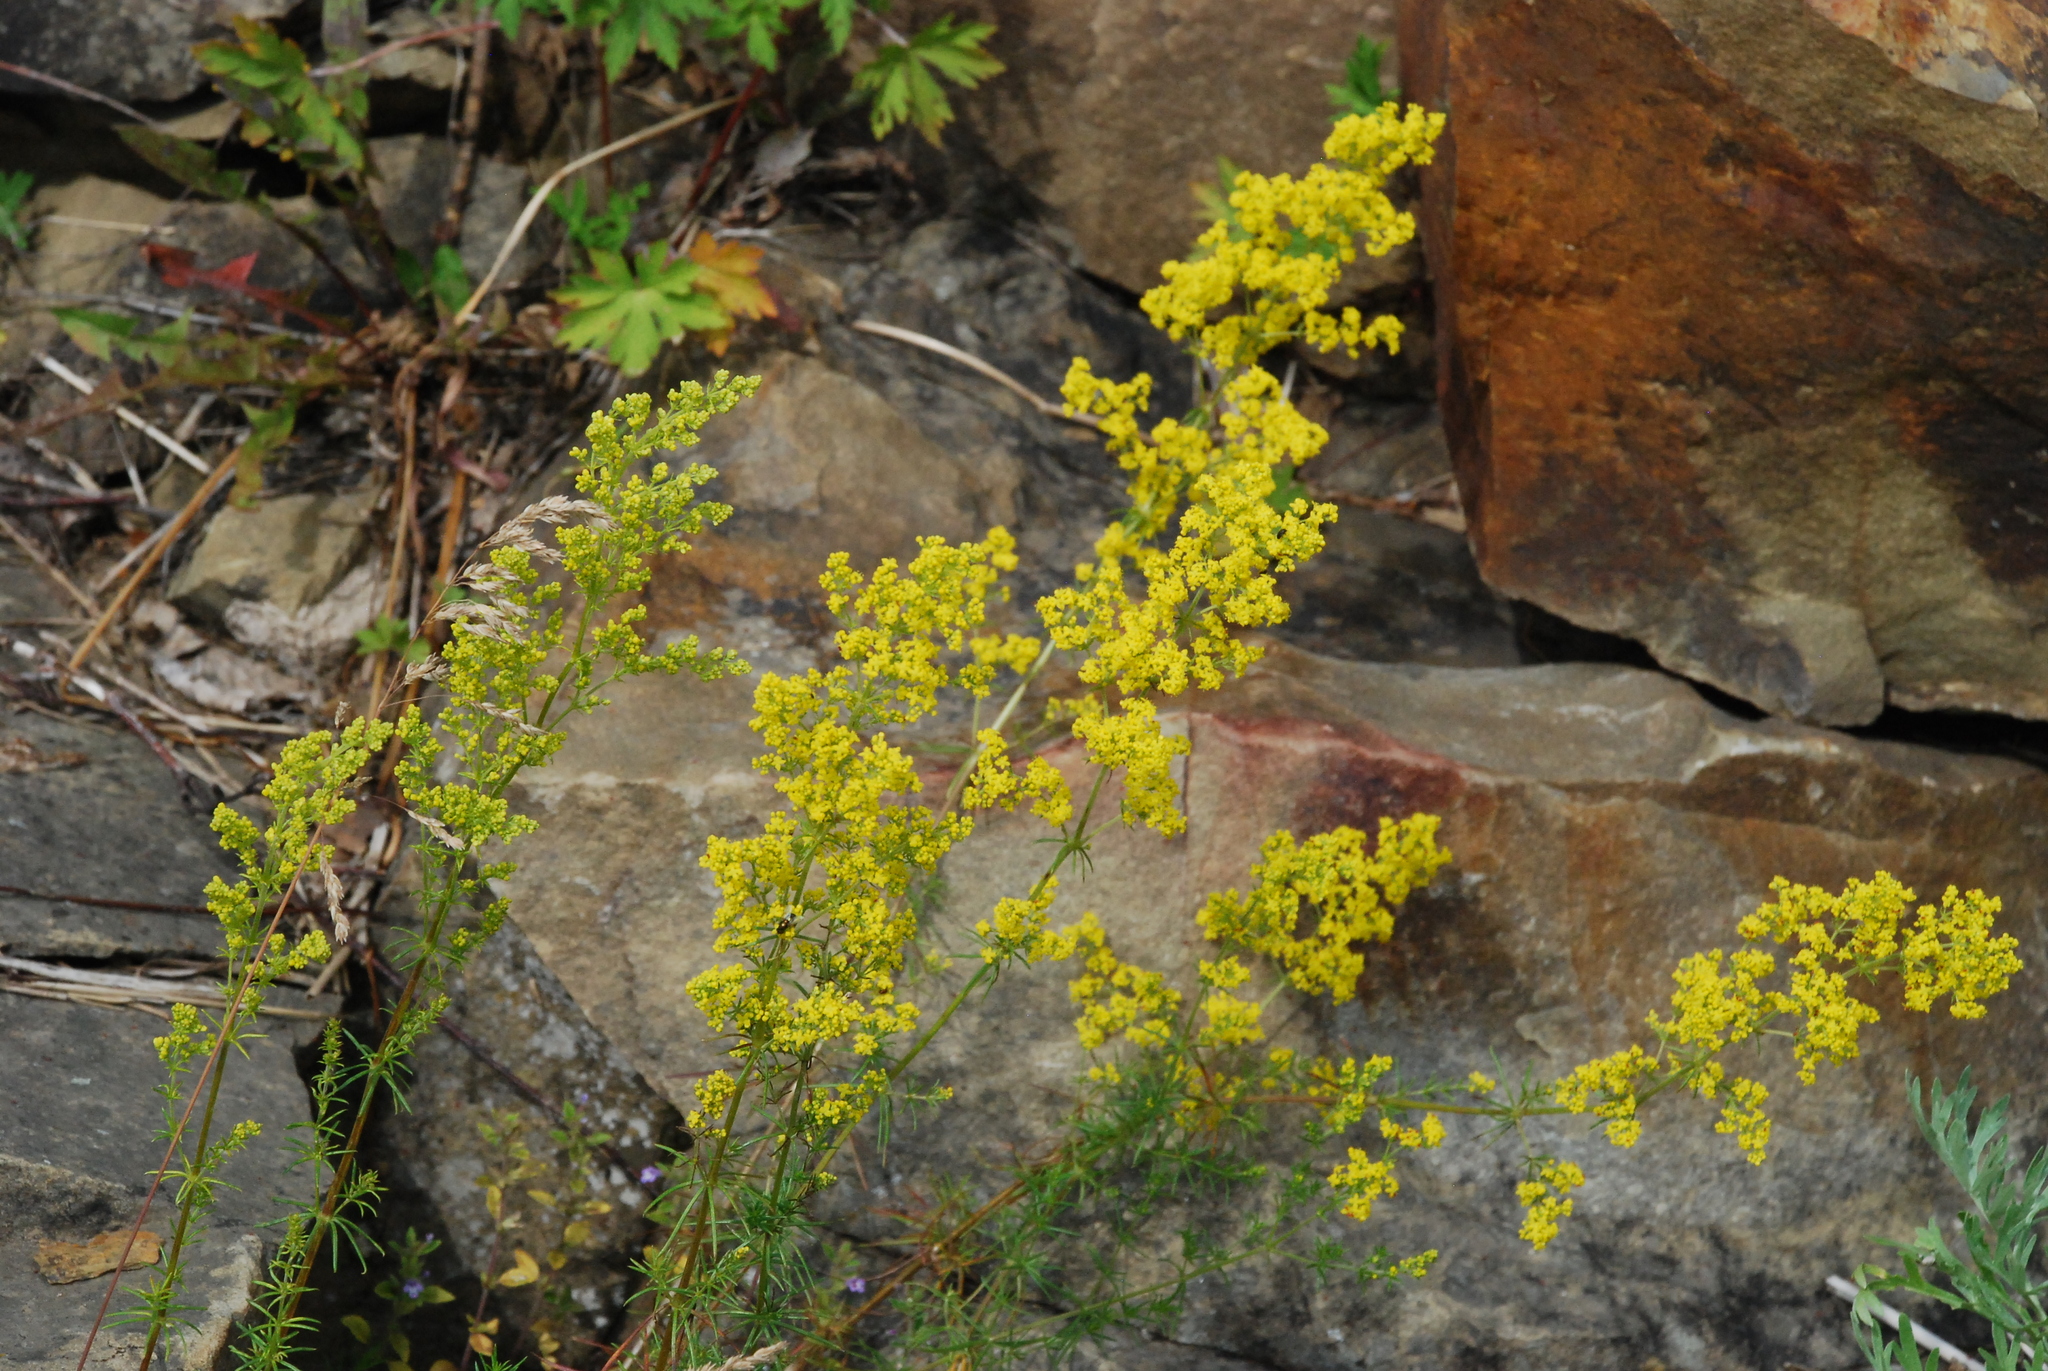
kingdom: Plantae
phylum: Tracheophyta
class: Magnoliopsida
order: Gentianales
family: Rubiaceae
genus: Galium
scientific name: Galium verum
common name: Lady's bedstraw
